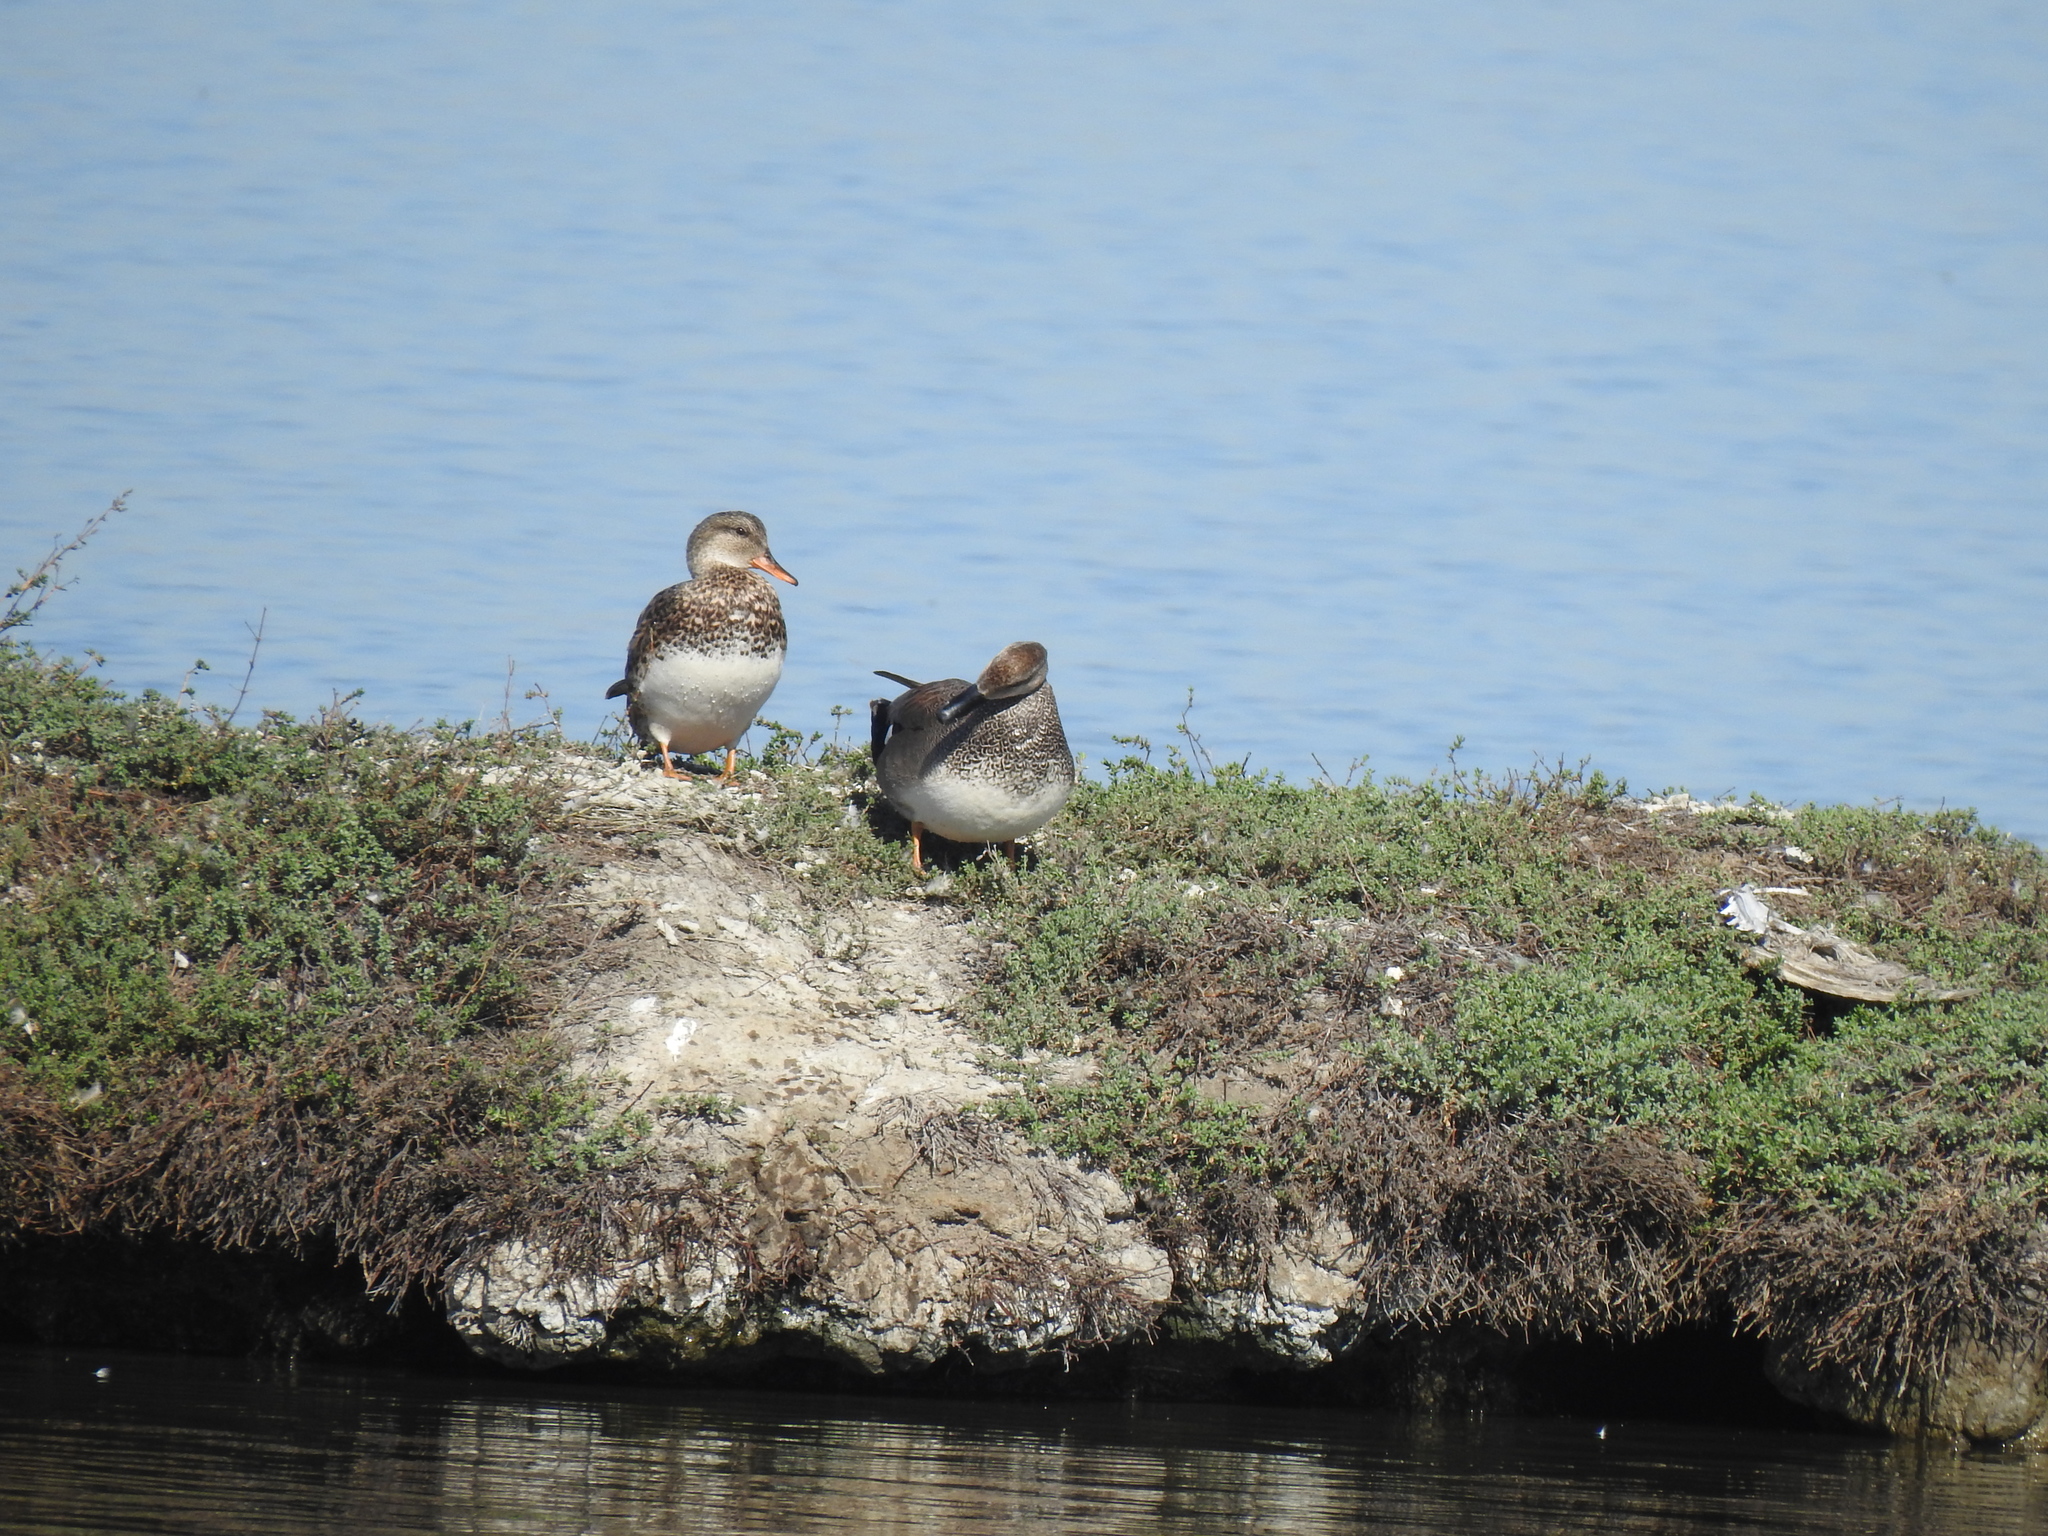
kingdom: Animalia
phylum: Chordata
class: Aves
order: Anseriformes
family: Anatidae
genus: Mareca
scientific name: Mareca strepera
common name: Gadwall
